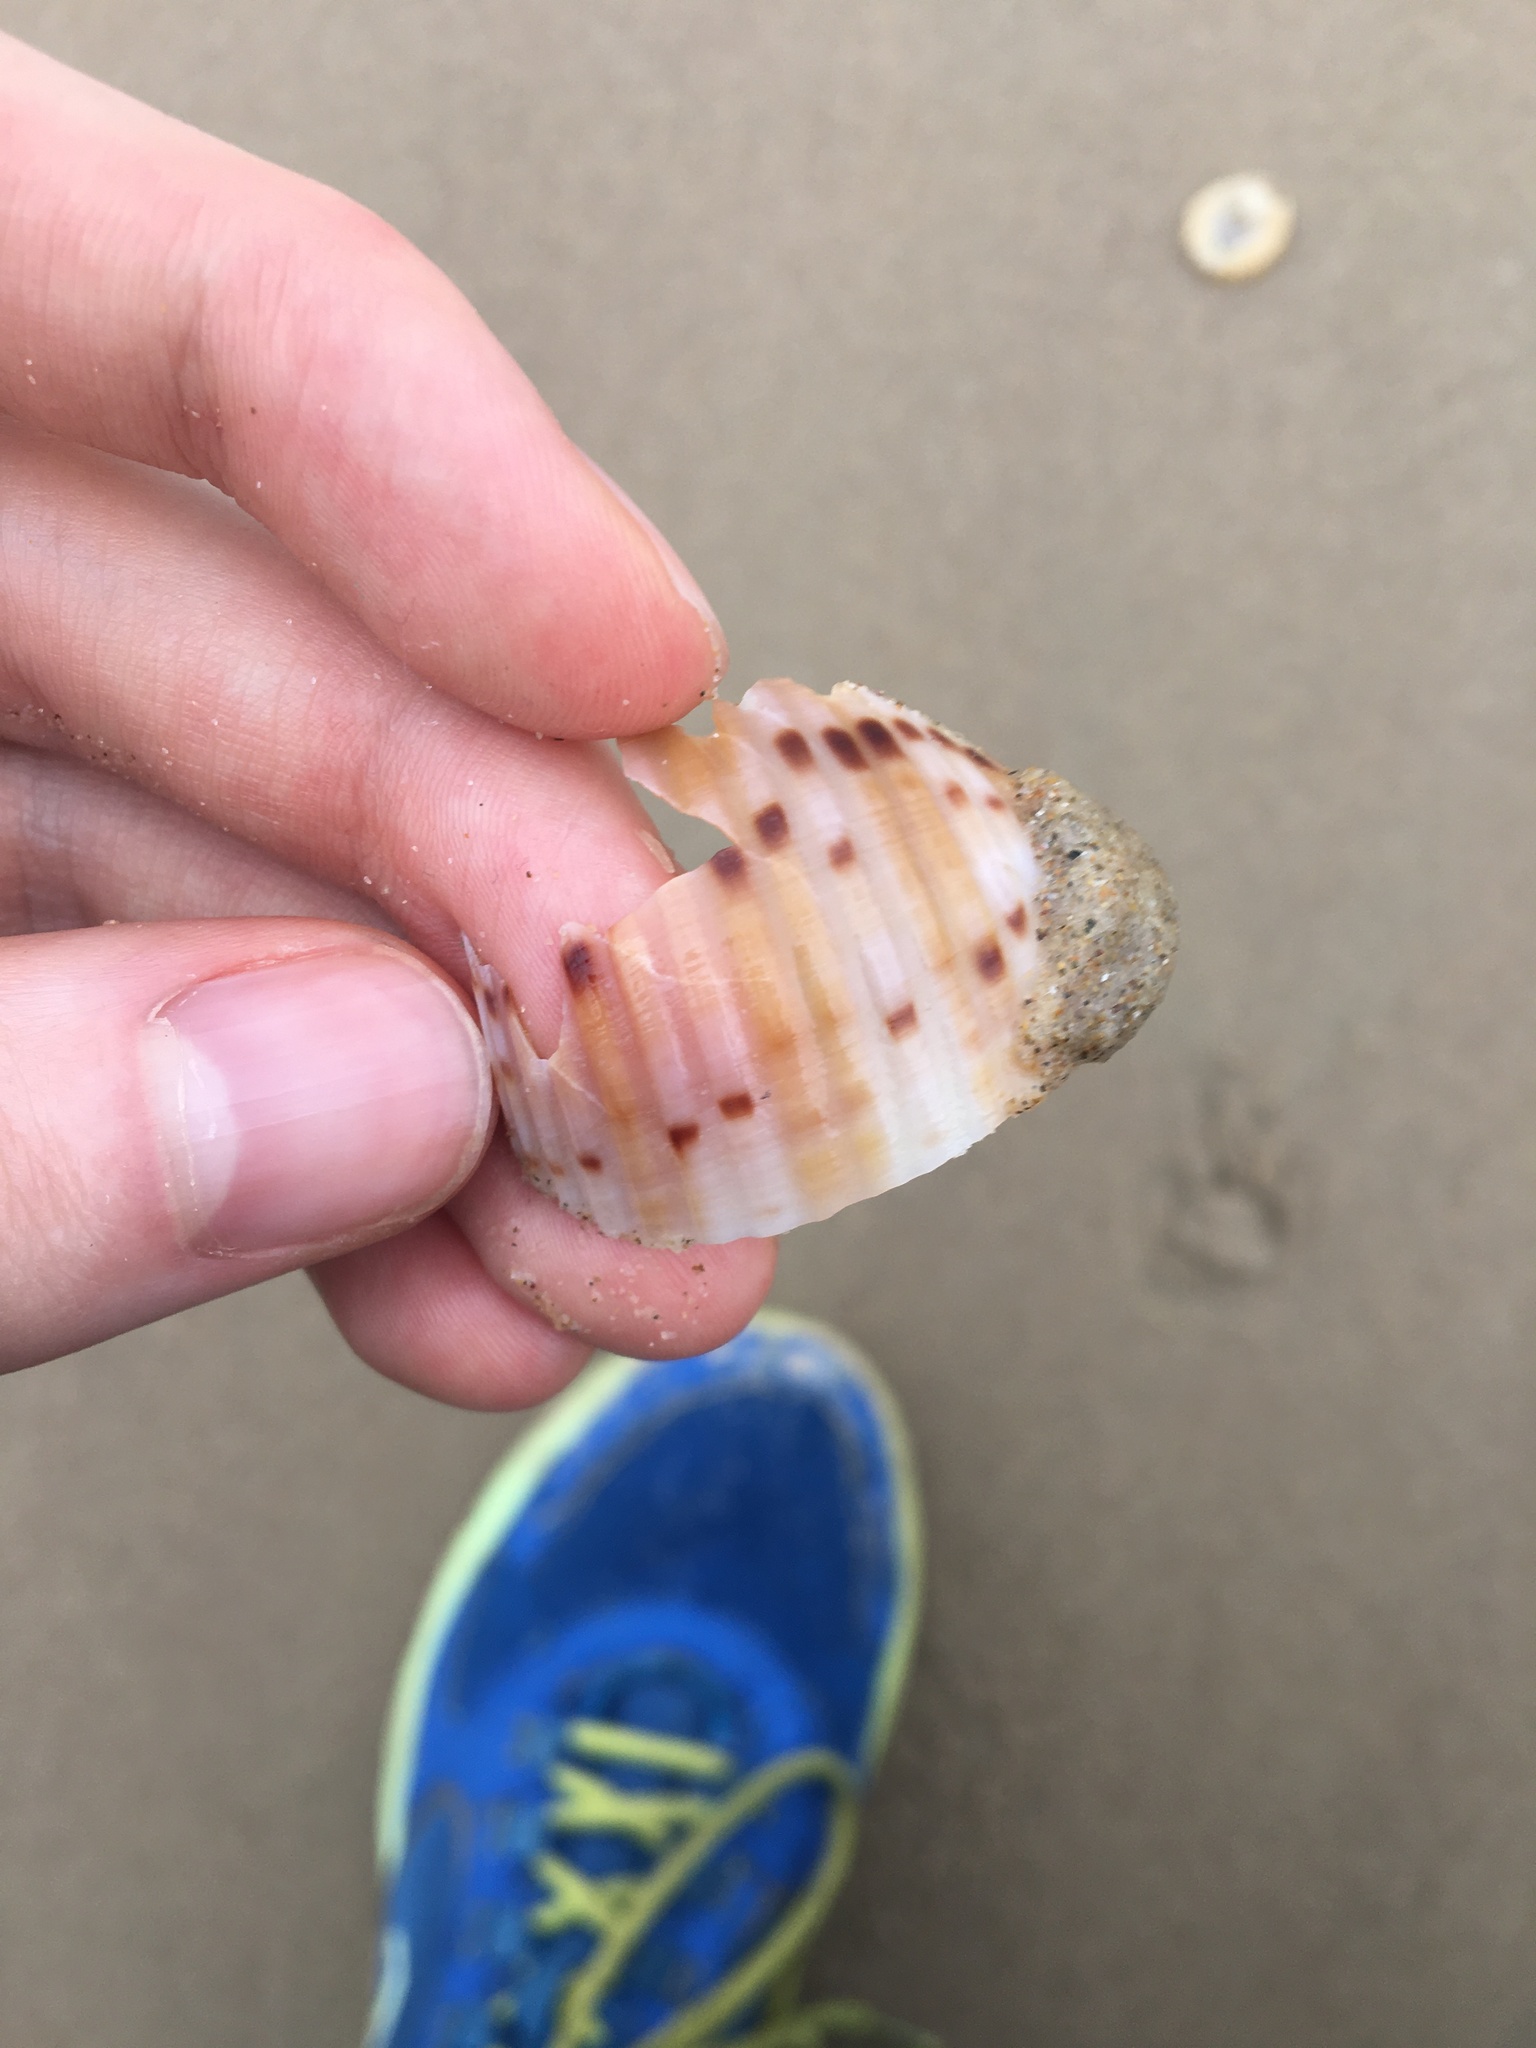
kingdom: Animalia
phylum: Mollusca
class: Gastropoda
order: Littorinimorpha
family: Tonnidae
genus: Tonna
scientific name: Tonna tankervillii
